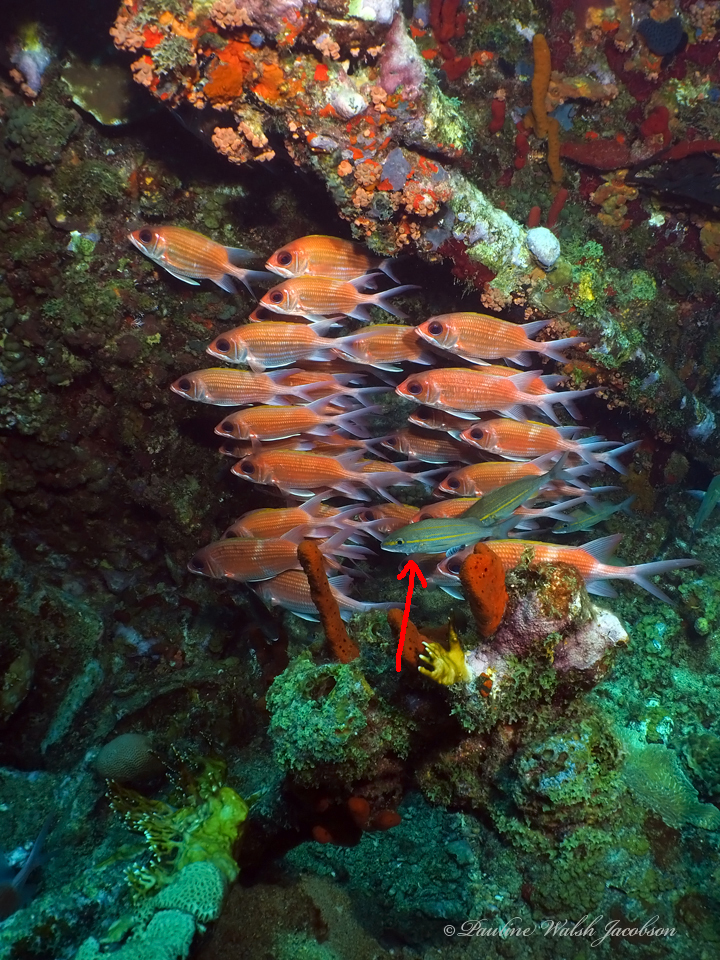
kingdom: Animalia
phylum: Chordata
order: Perciformes
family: Haemulidae
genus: Haemulon
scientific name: Haemulon aurolineatum
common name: Tomtate
